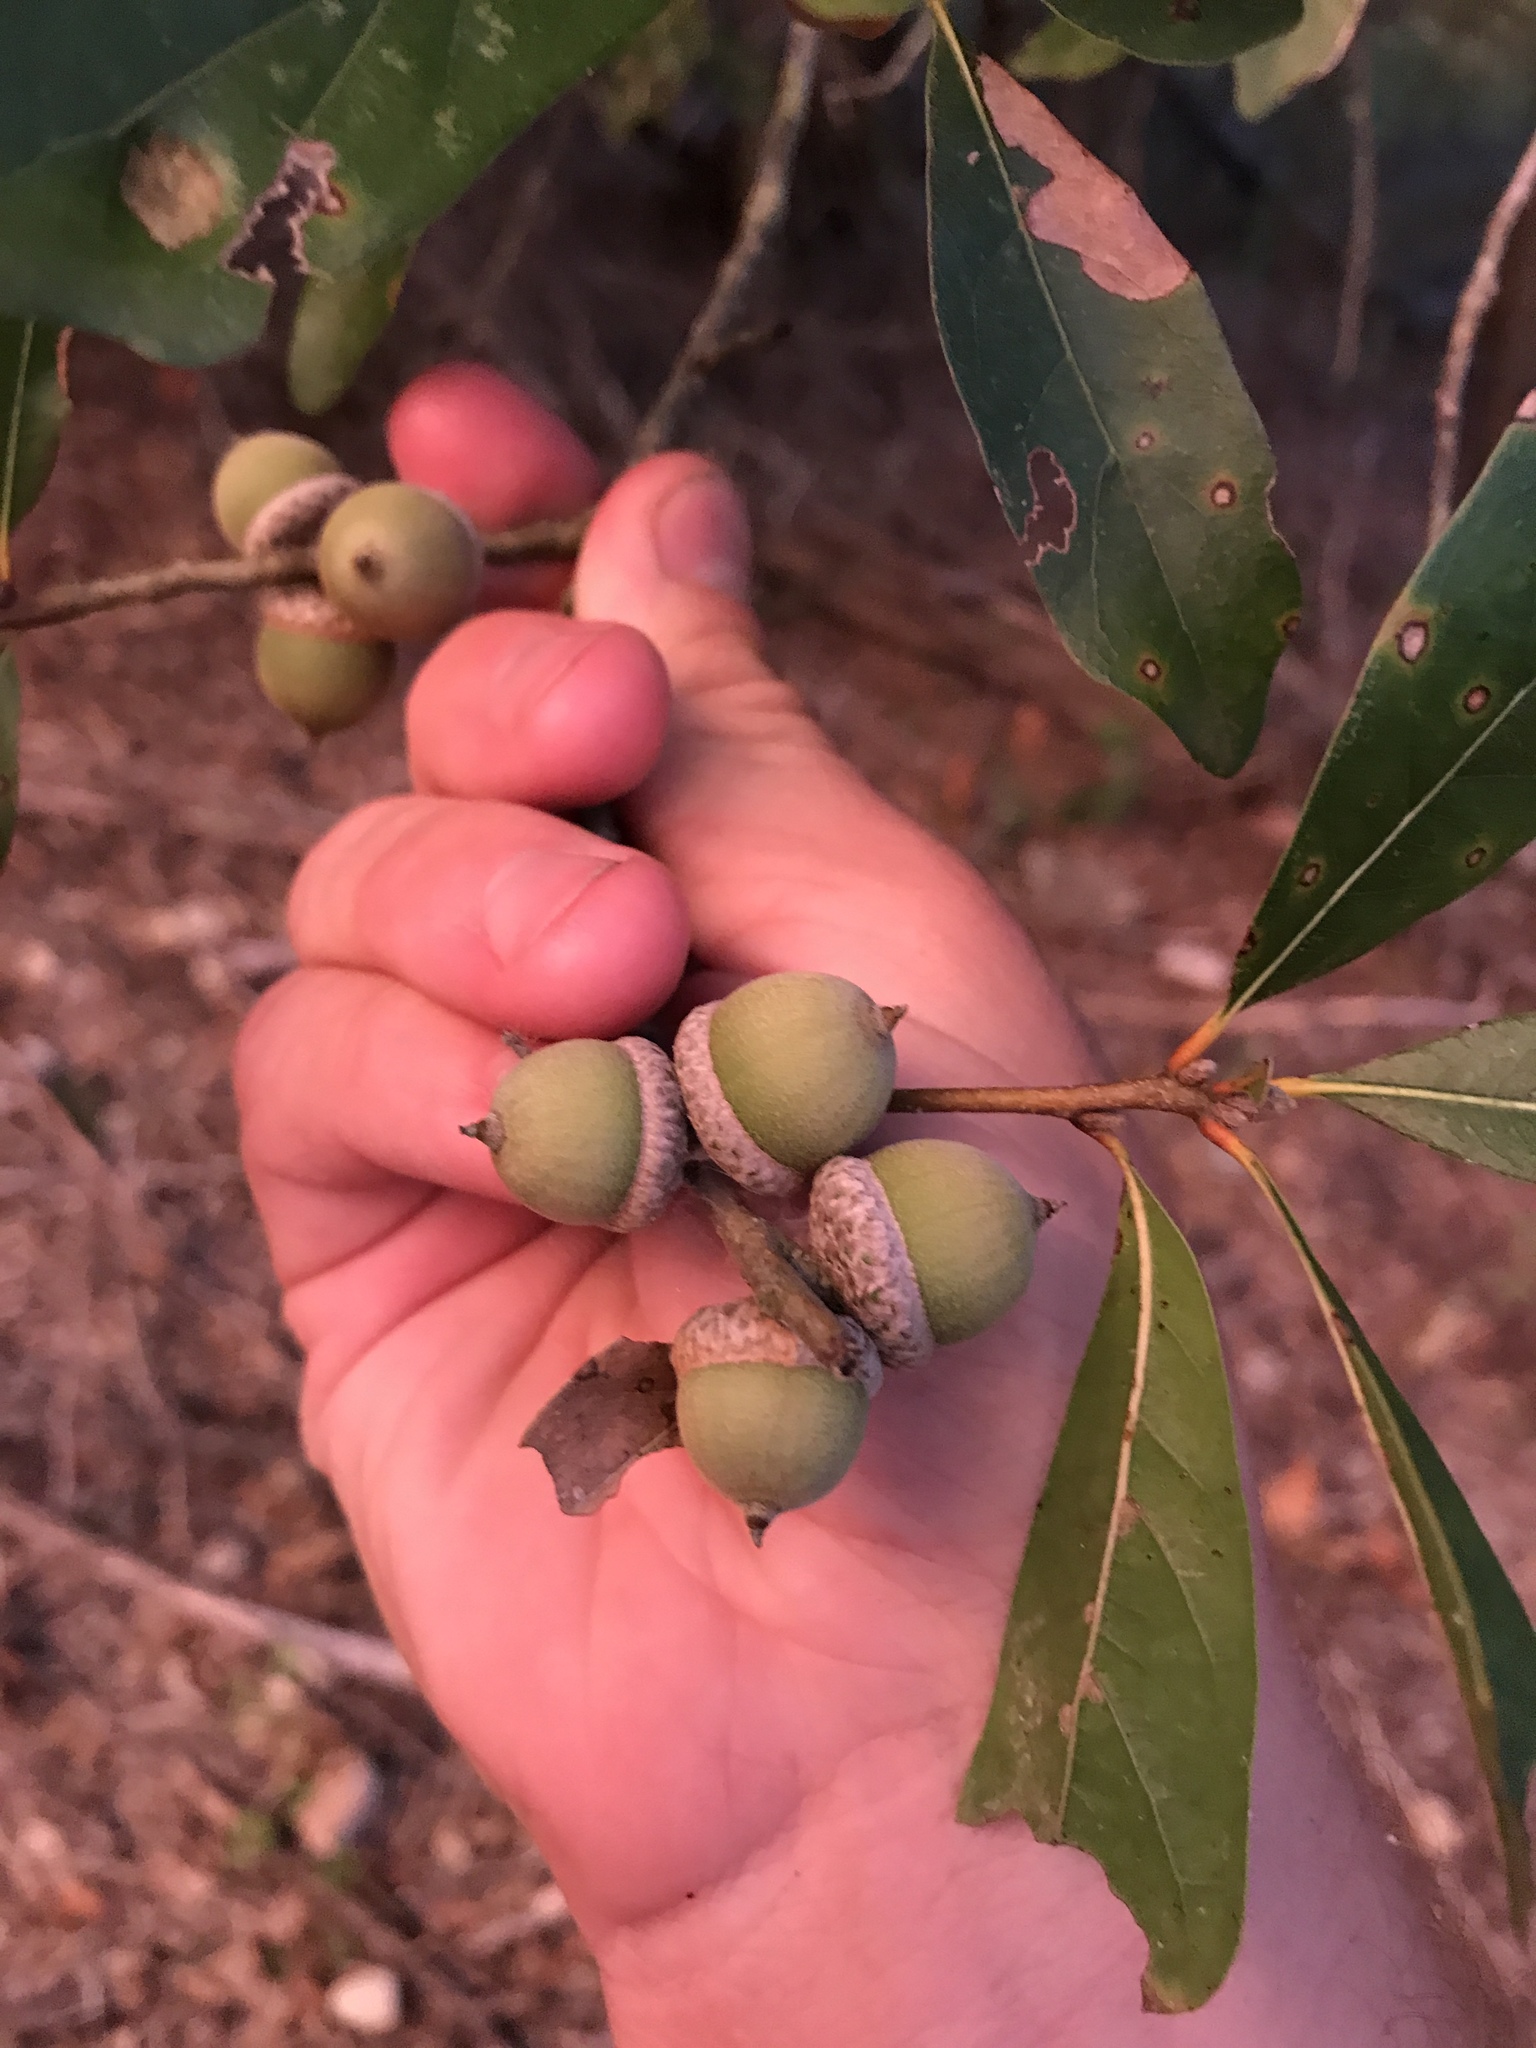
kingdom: Plantae
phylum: Tracheophyta
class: Magnoliopsida
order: Fagales
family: Fagaceae
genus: Quercus
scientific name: Quercus nigra
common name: Water oak
